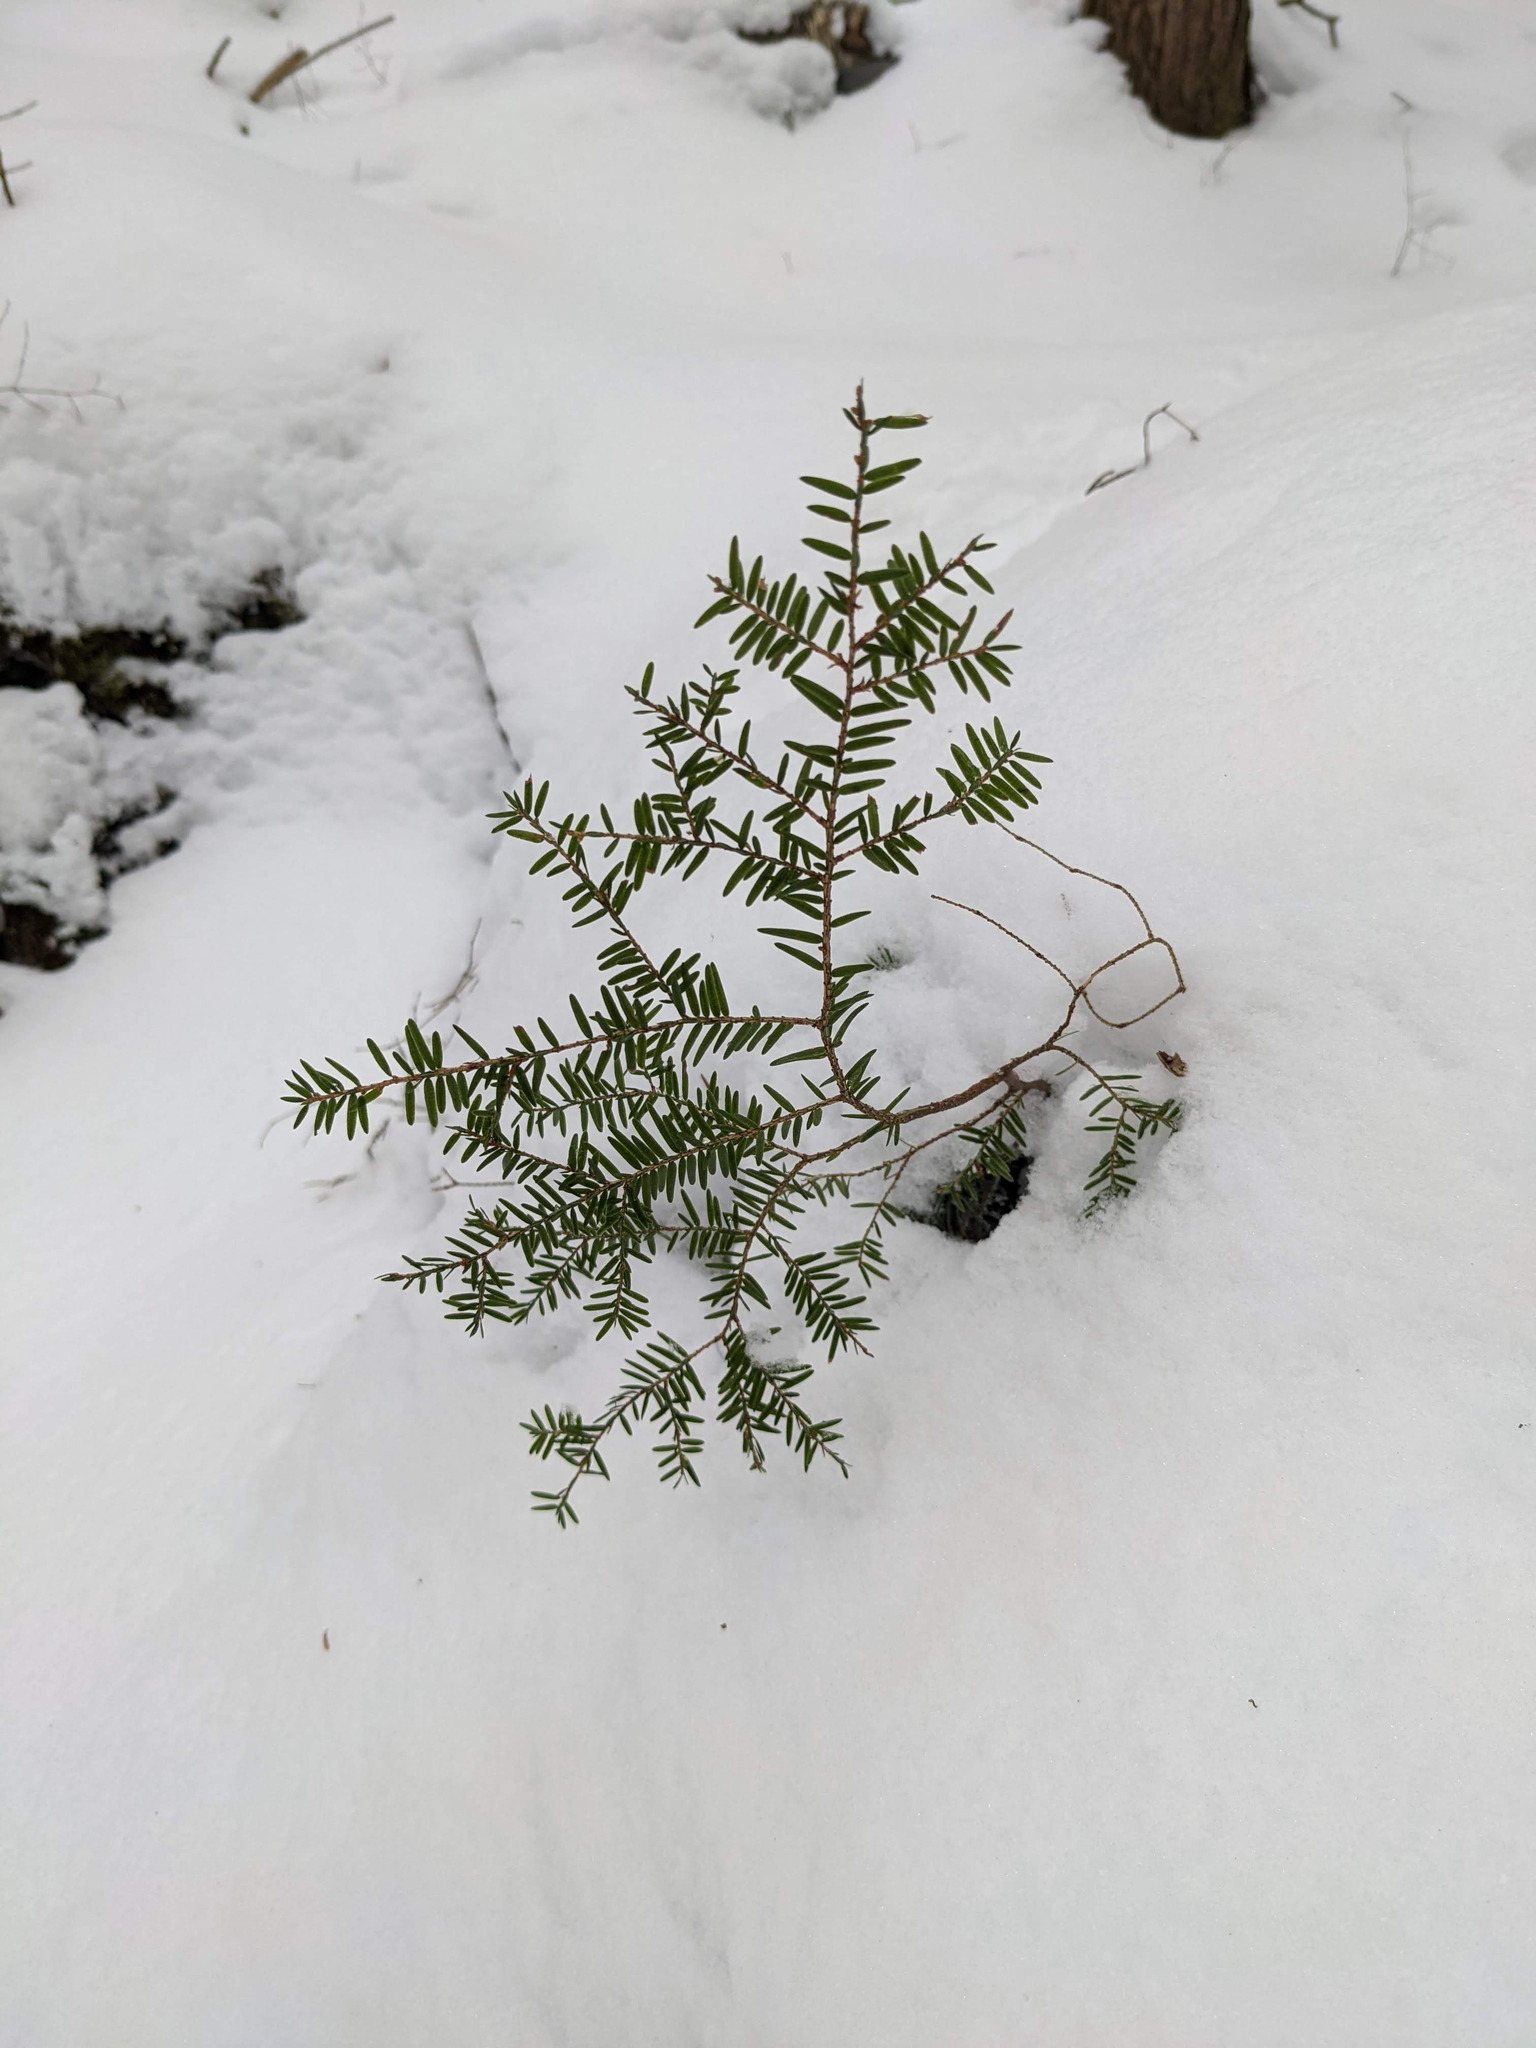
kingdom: Plantae
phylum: Tracheophyta
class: Pinopsida
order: Pinales
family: Pinaceae
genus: Tsuga
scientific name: Tsuga canadensis
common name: Eastern hemlock
